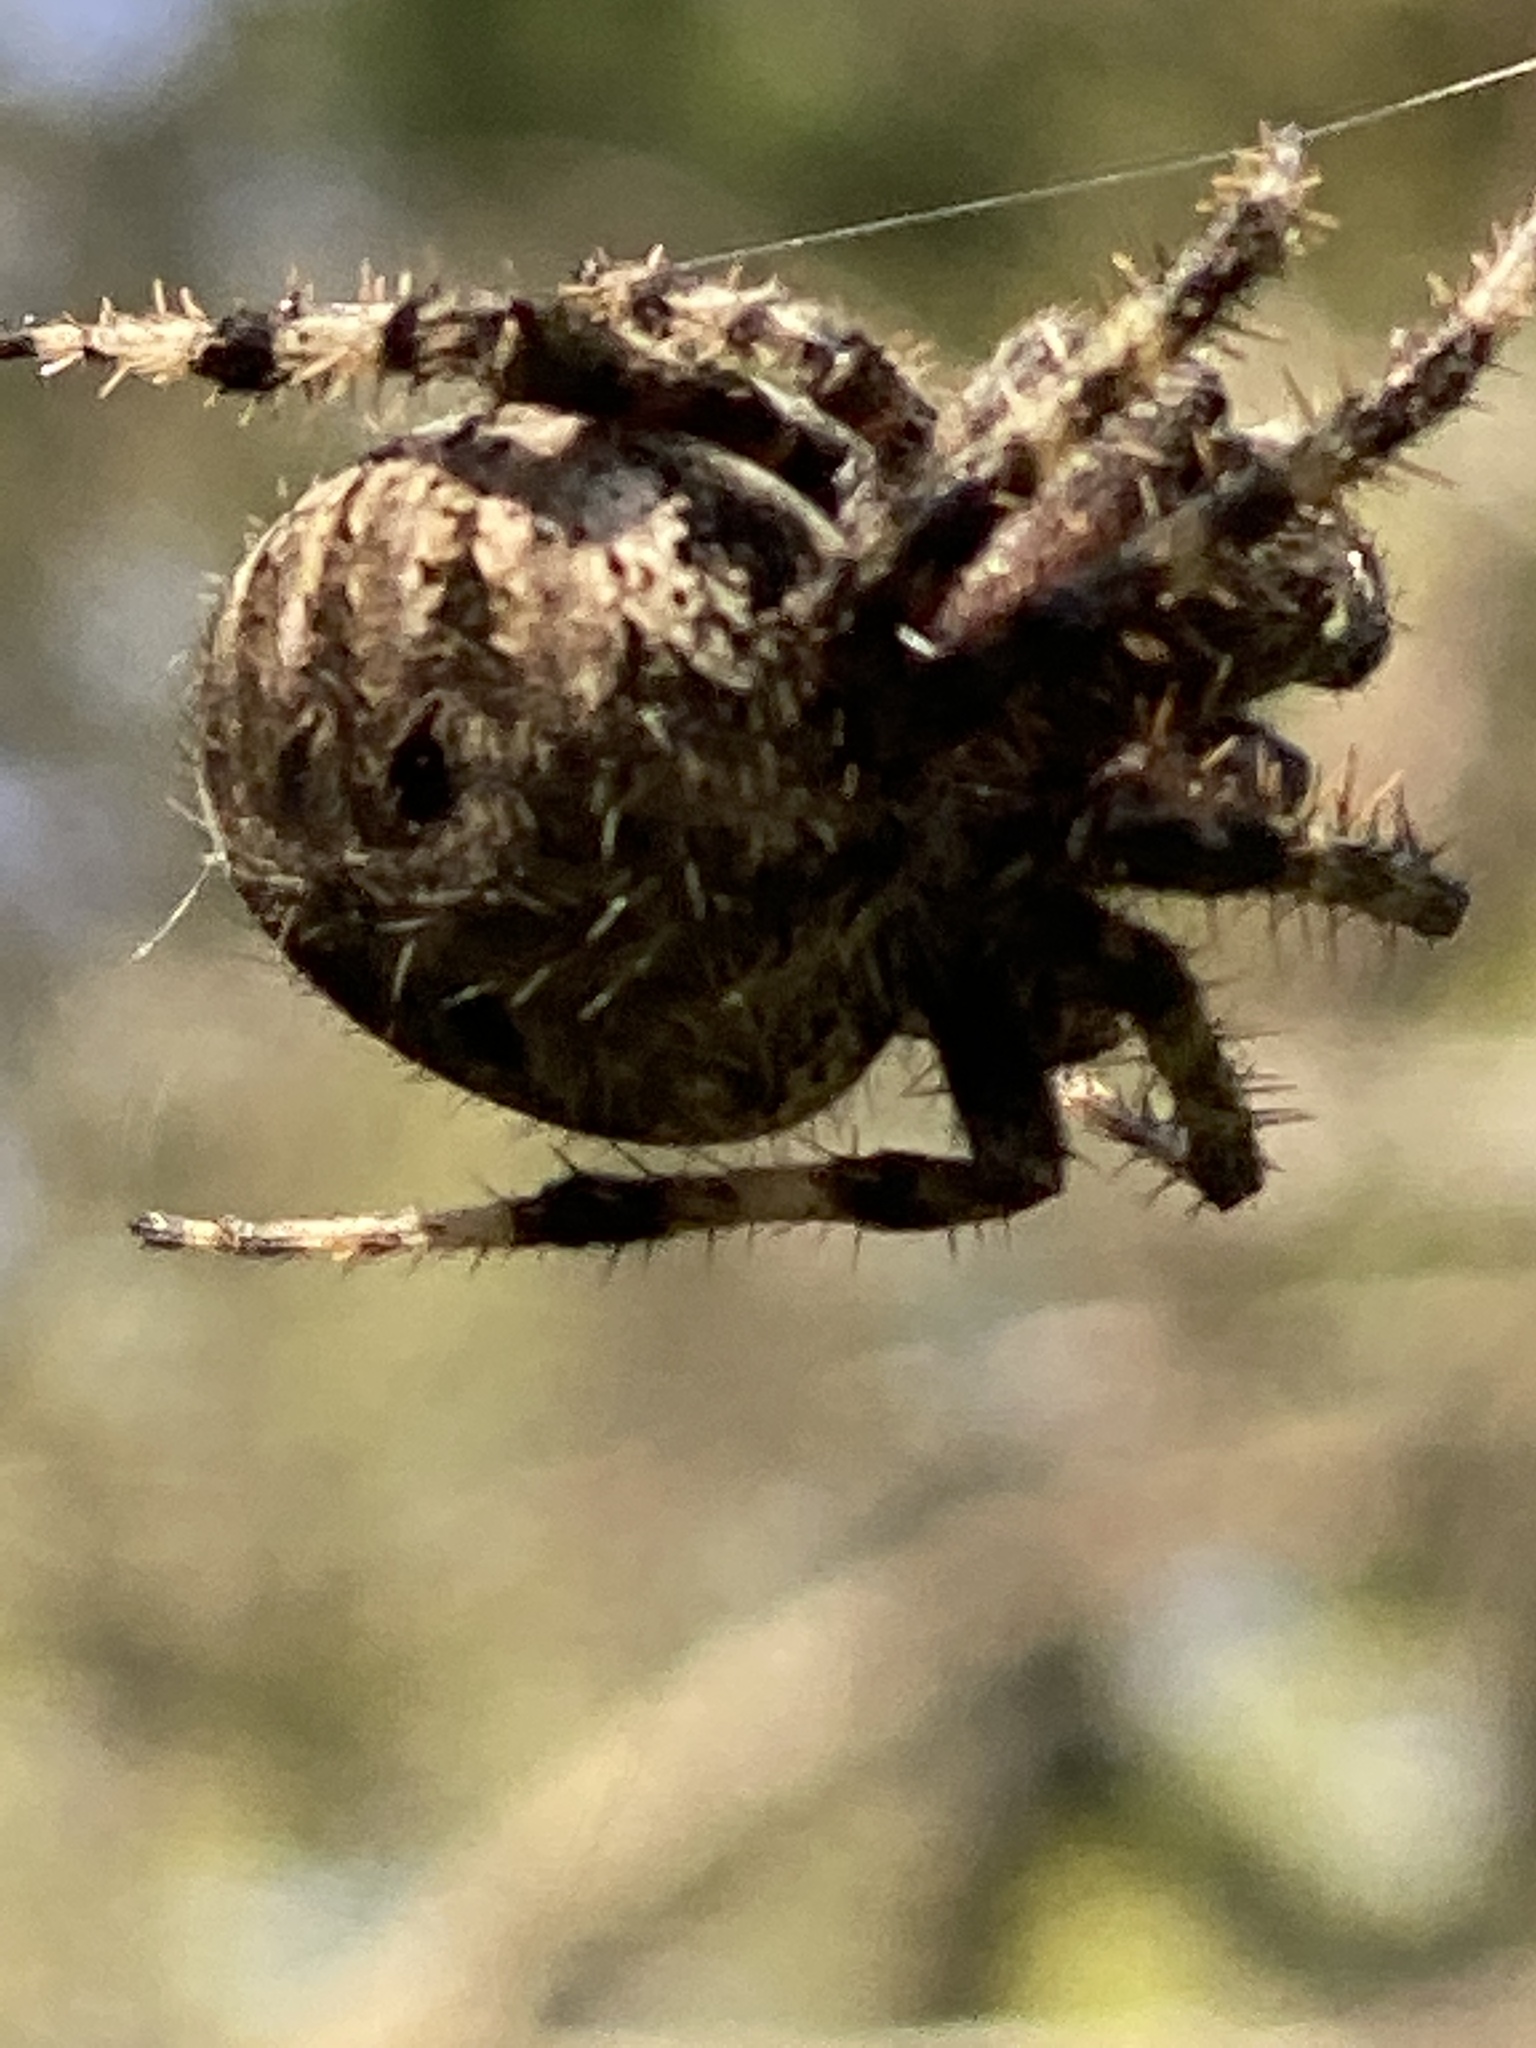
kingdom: Animalia
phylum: Arthropoda
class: Arachnida
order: Araneae
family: Araneidae
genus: Neoscona
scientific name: Neoscona crucifera
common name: Spotted orbweaver
